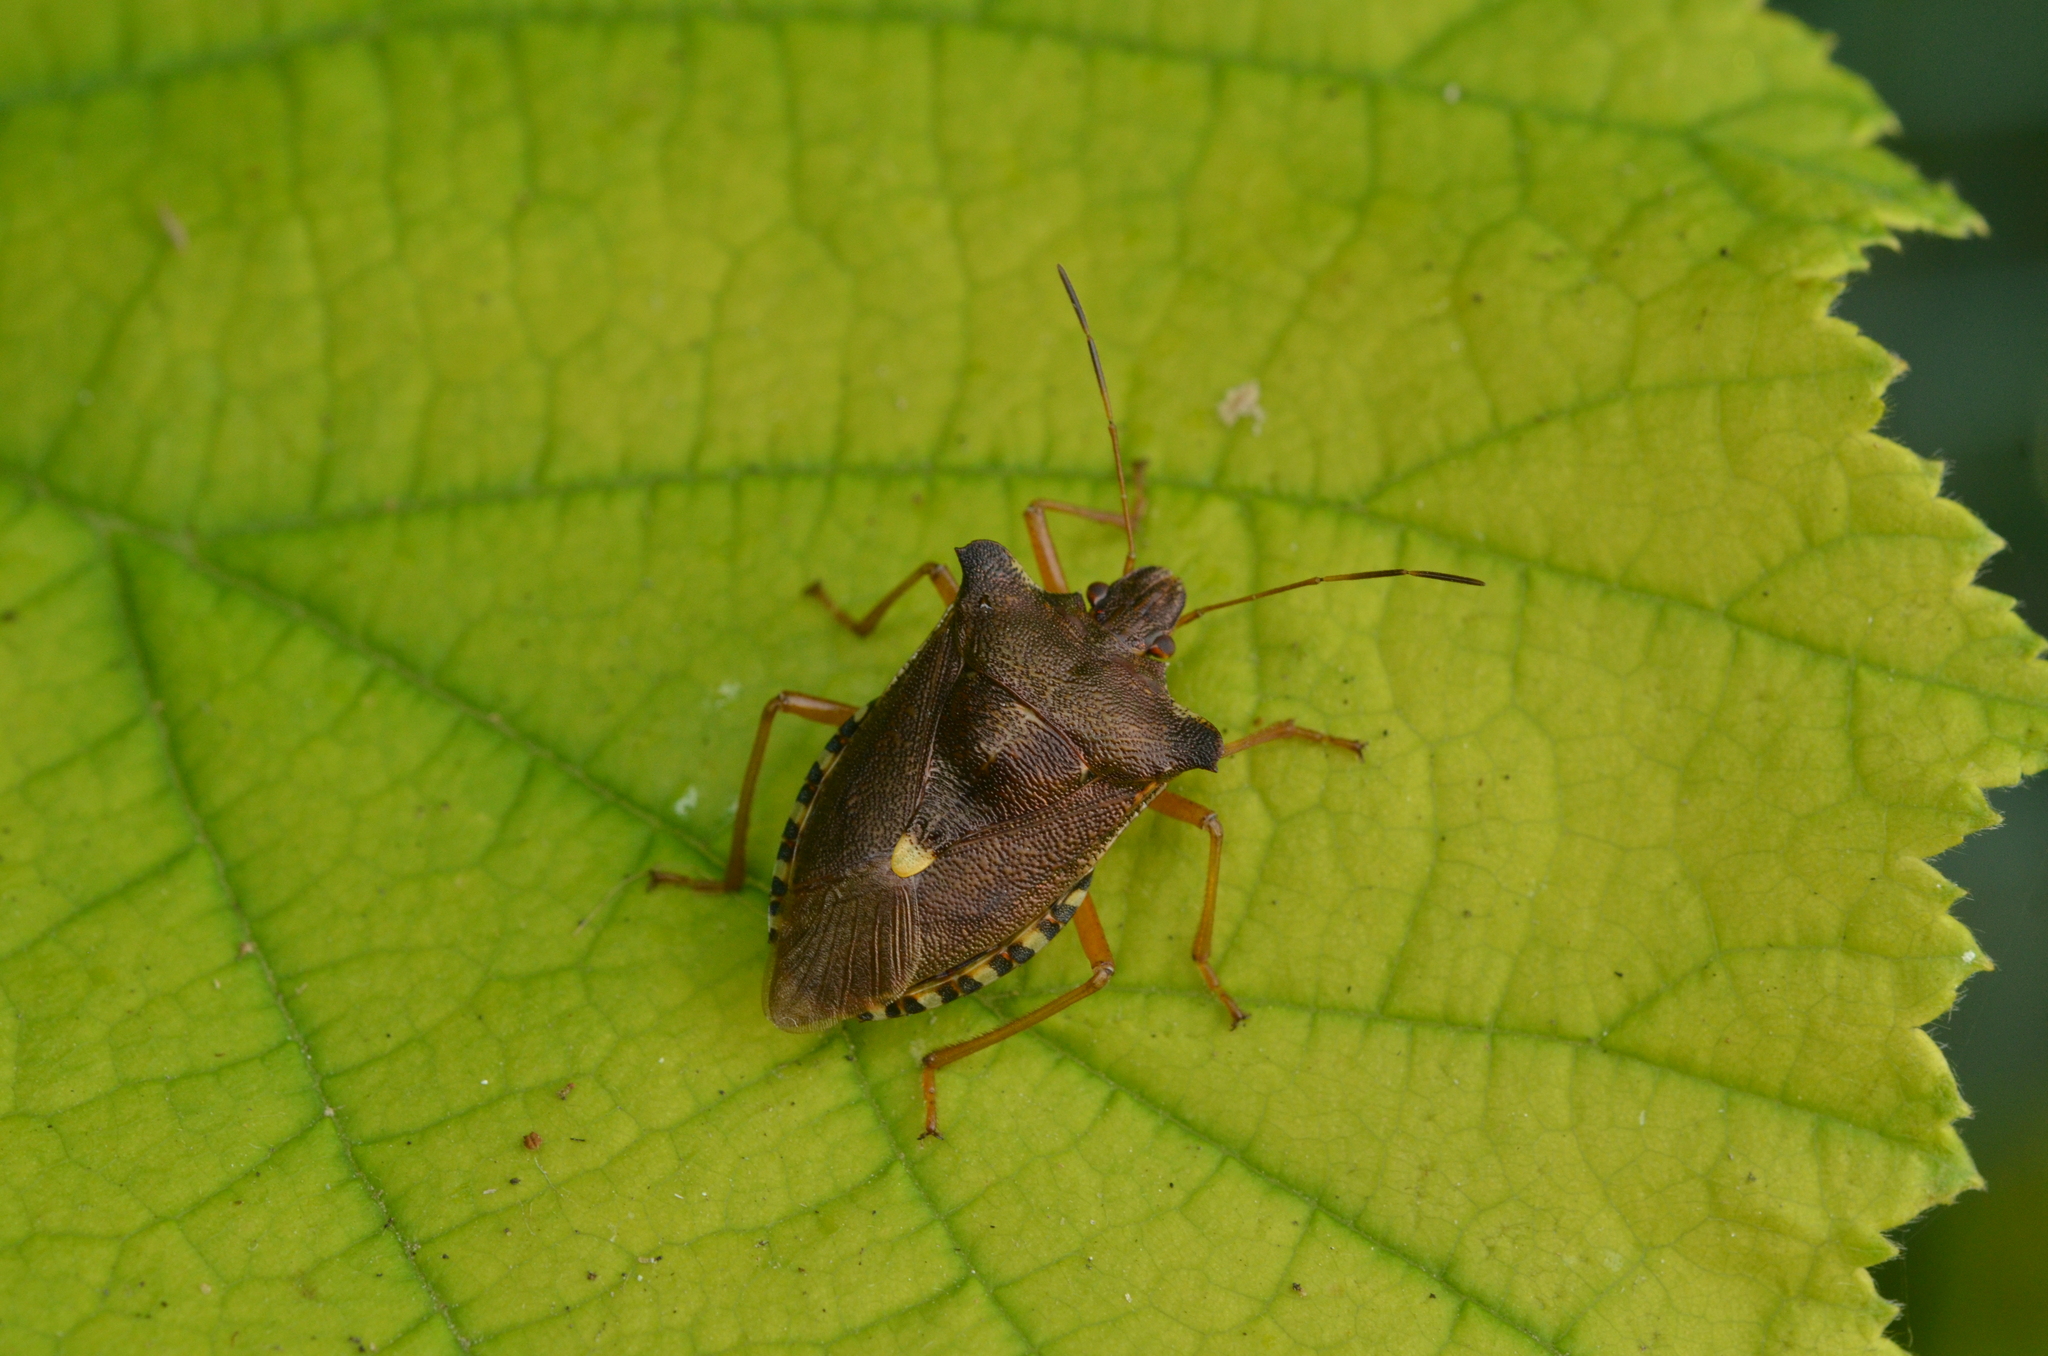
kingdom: Animalia
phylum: Arthropoda
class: Insecta
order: Hemiptera
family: Pentatomidae
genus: Pentatoma
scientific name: Pentatoma rufipes
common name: Forest bug
